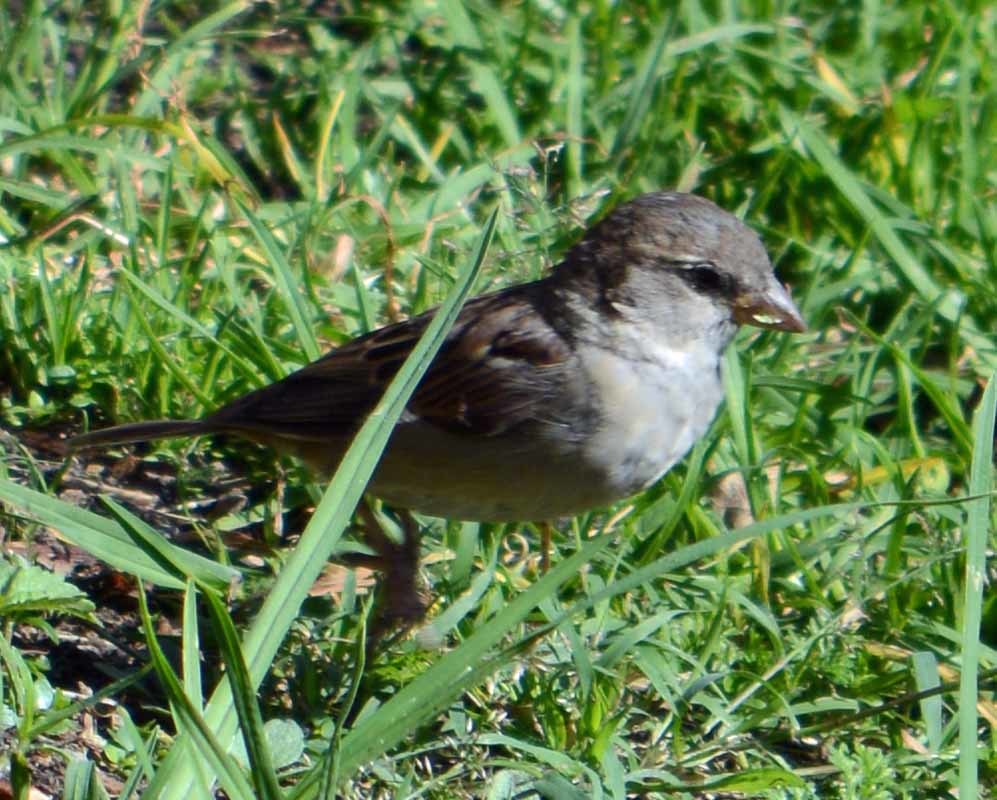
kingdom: Animalia
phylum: Chordata
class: Aves
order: Passeriformes
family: Passeridae
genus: Passer
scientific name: Passer domesticus
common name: House sparrow
